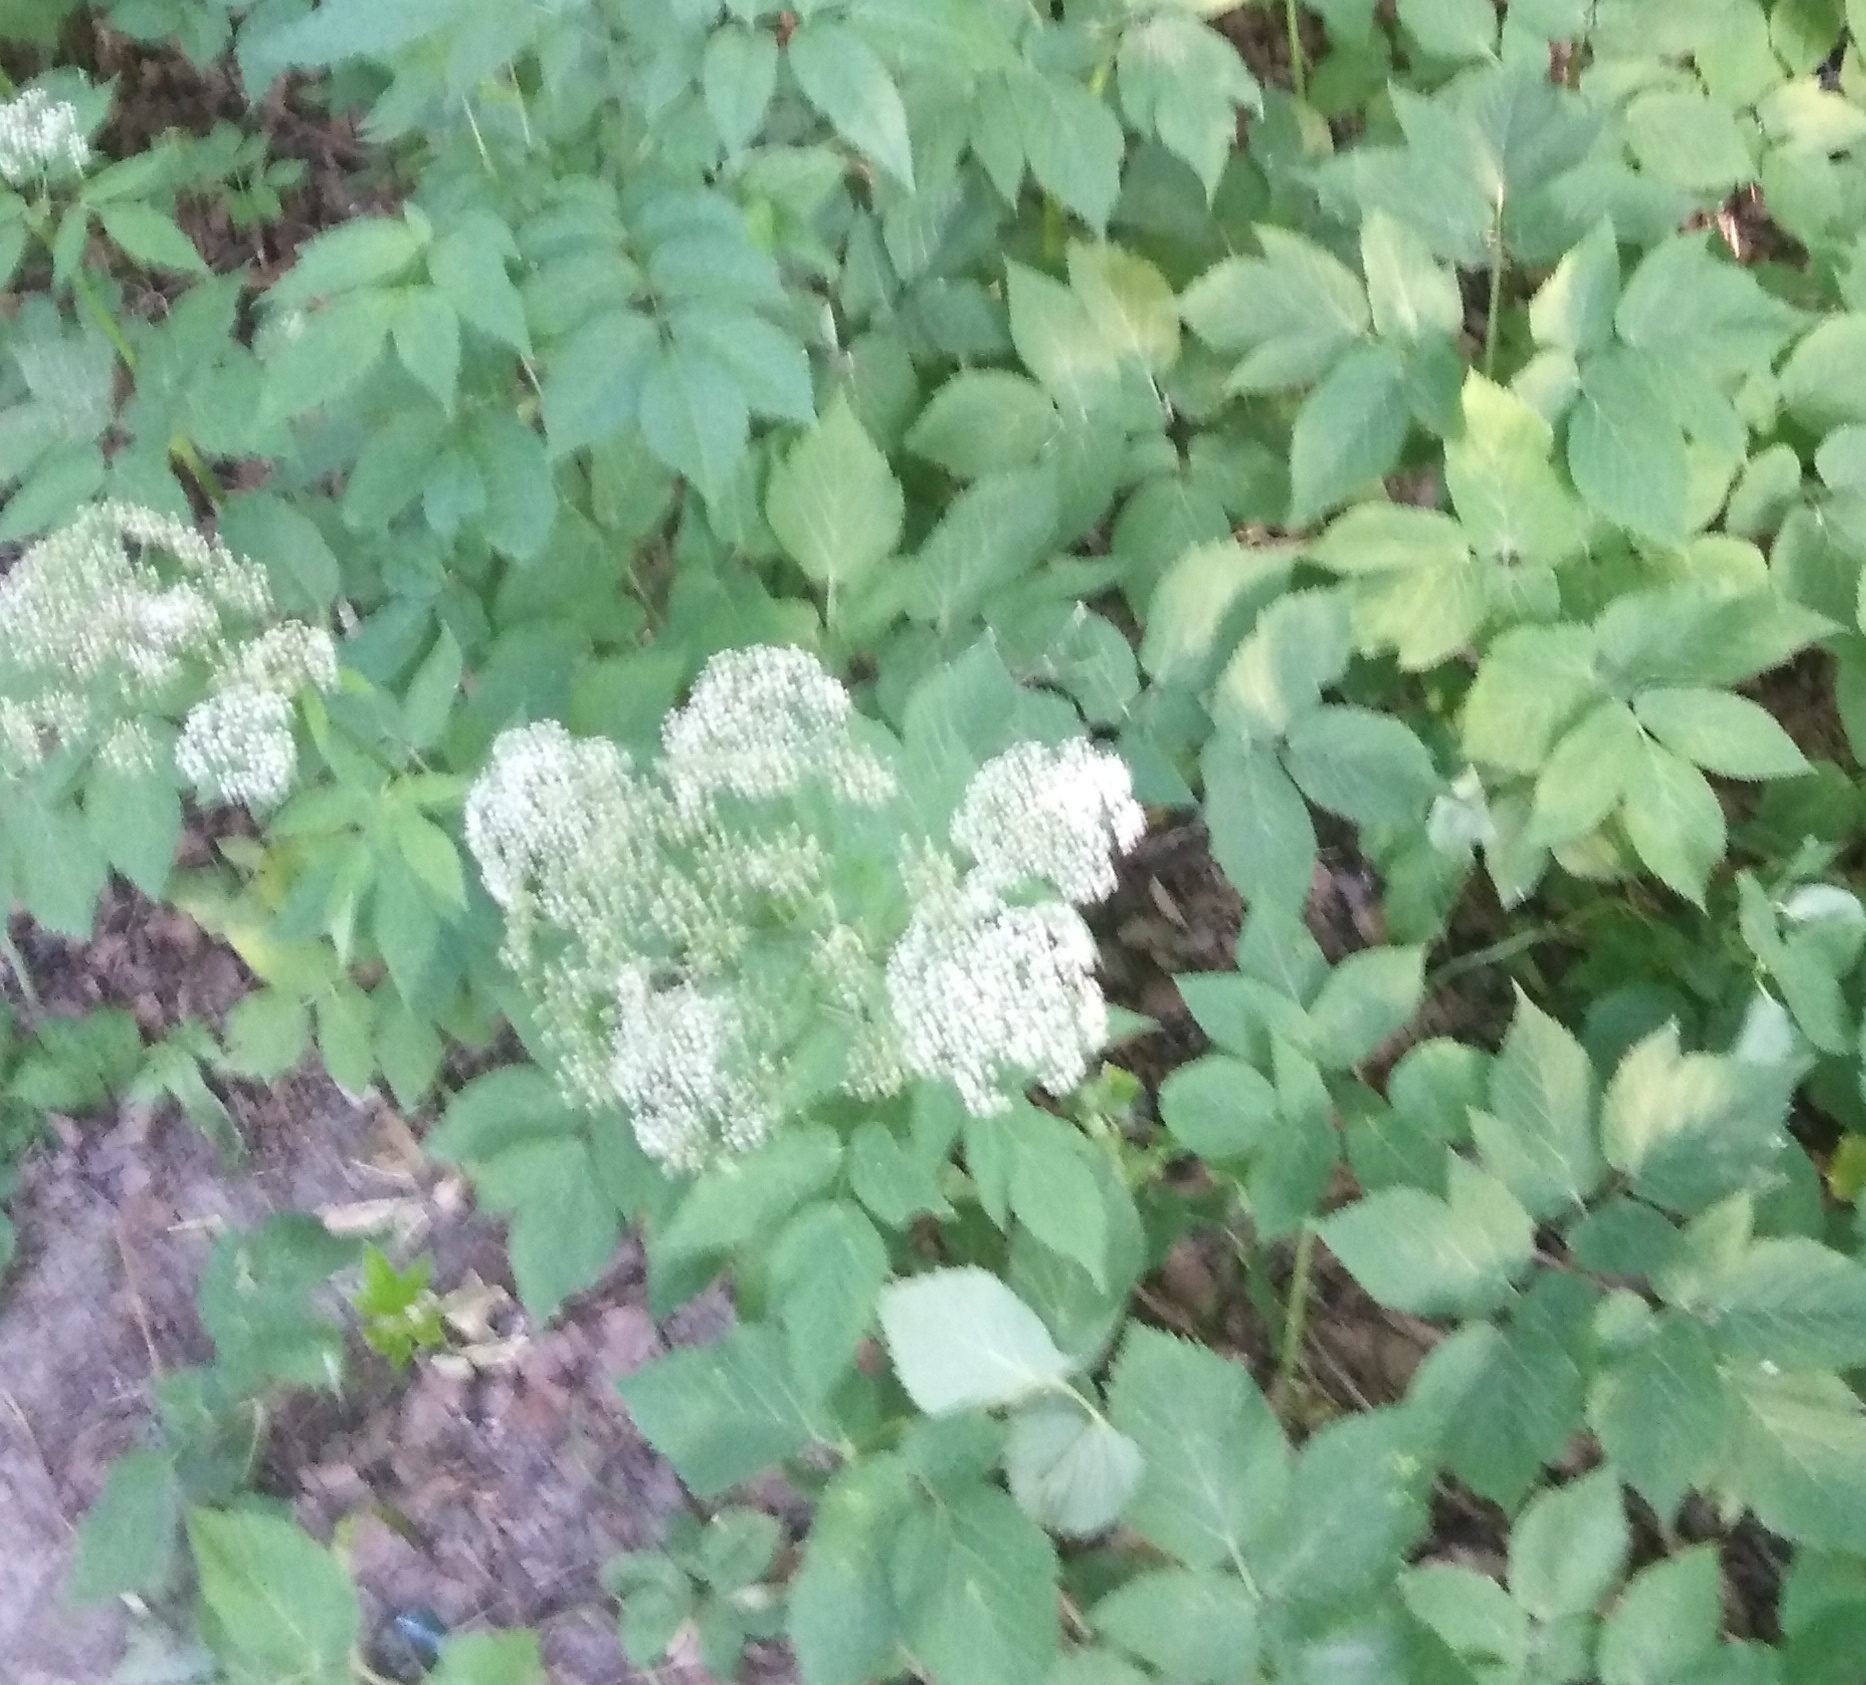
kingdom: Plantae
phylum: Tracheophyta
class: Magnoliopsida
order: Apiales
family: Apiaceae
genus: Aegopodium
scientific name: Aegopodium podagraria
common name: Ground-elder
